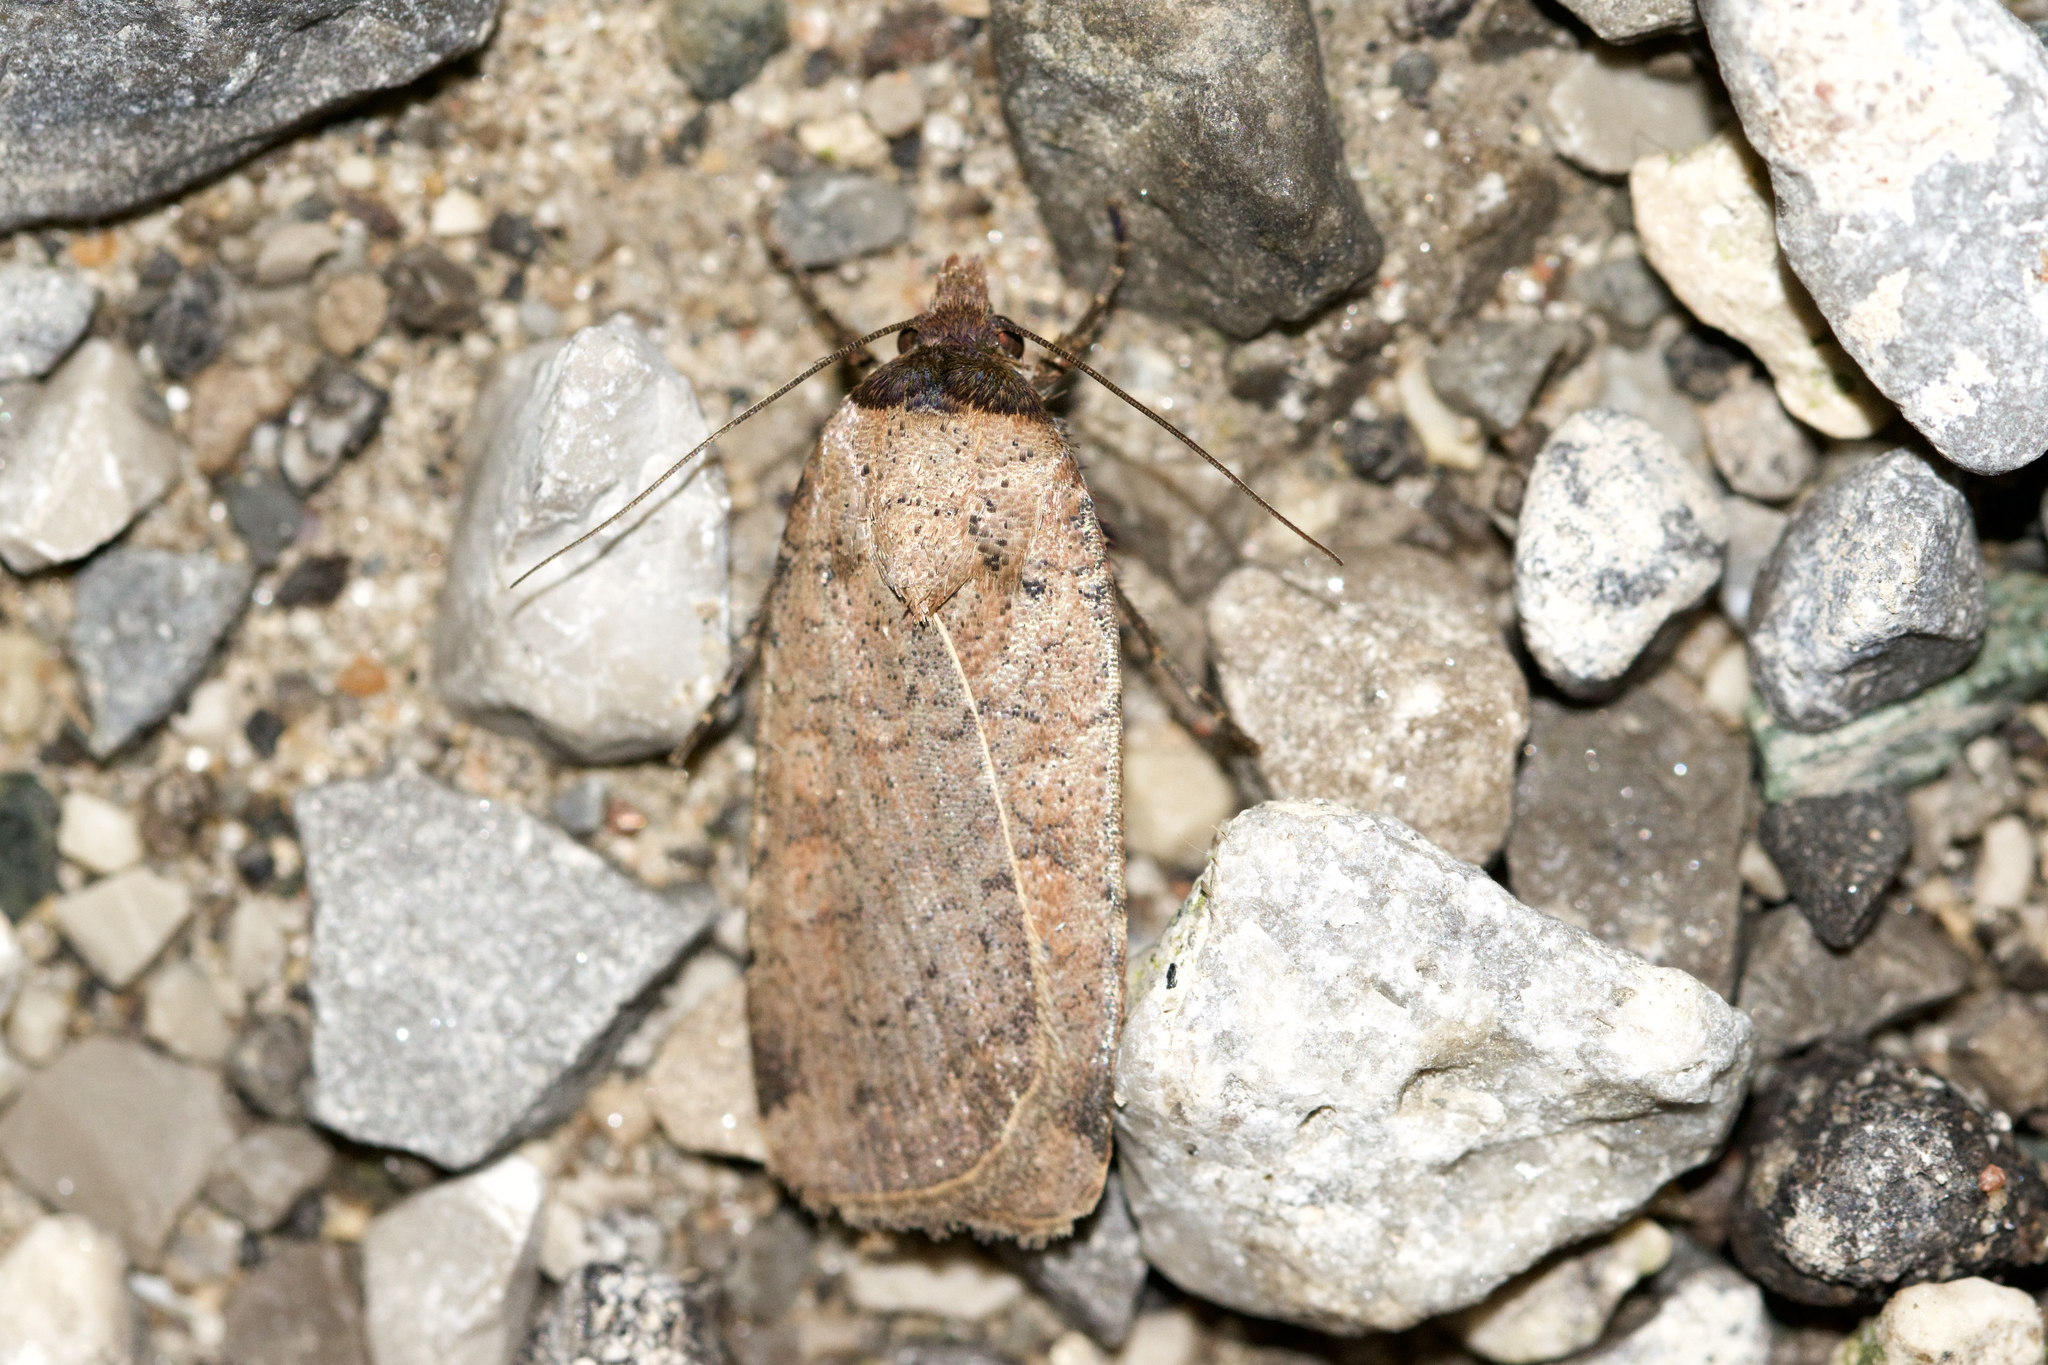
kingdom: Animalia
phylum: Arthropoda
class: Insecta
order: Lepidoptera
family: Noctuidae
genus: Protolampra
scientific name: Protolampra brunneicollis
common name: Brown-collared dart
